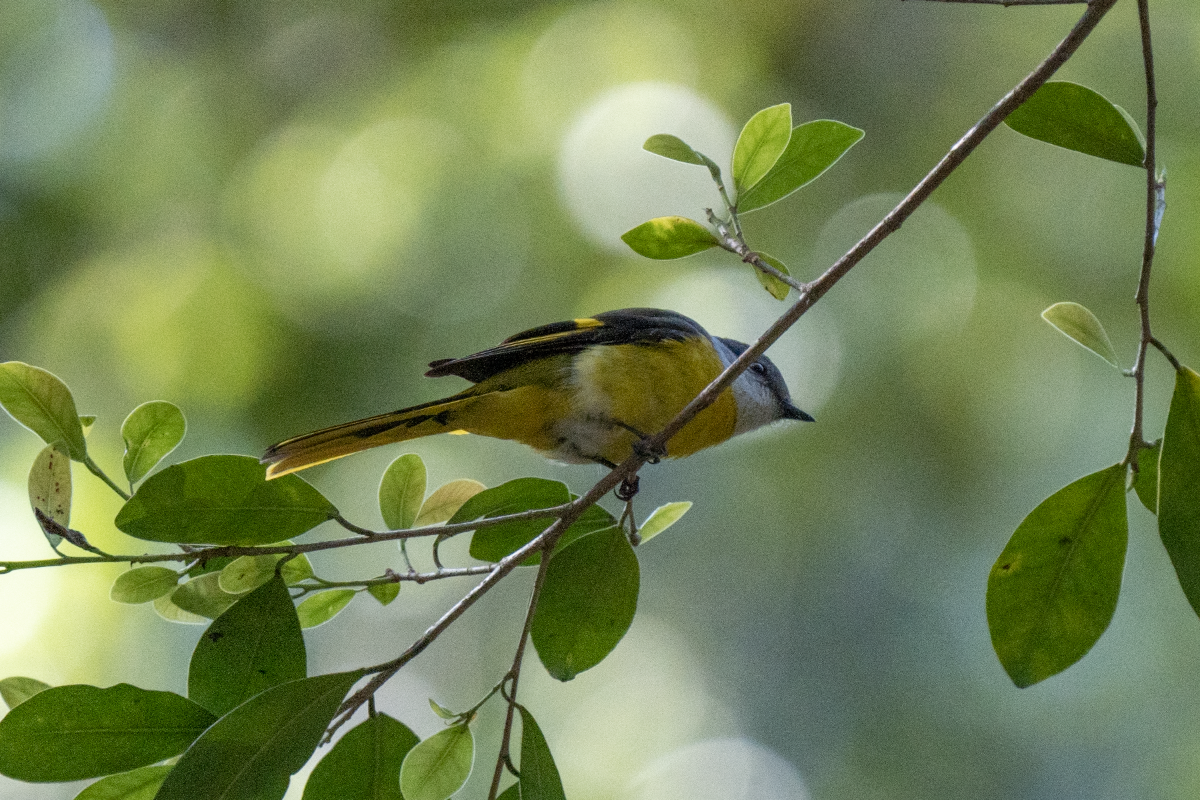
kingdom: Animalia
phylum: Chordata
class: Aves
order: Passeriformes
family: Campephagidae
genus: Pericrocotus
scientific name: Pericrocotus solaris
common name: Grey-chinned minivet
